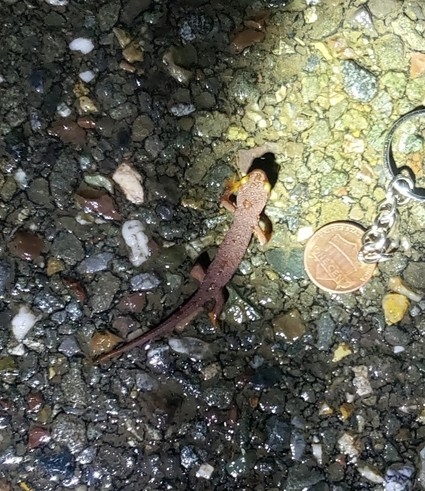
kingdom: Animalia
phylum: Chordata
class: Amphibia
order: Caudata
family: Salamandridae
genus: Taricha
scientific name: Taricha torosa
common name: California newt
